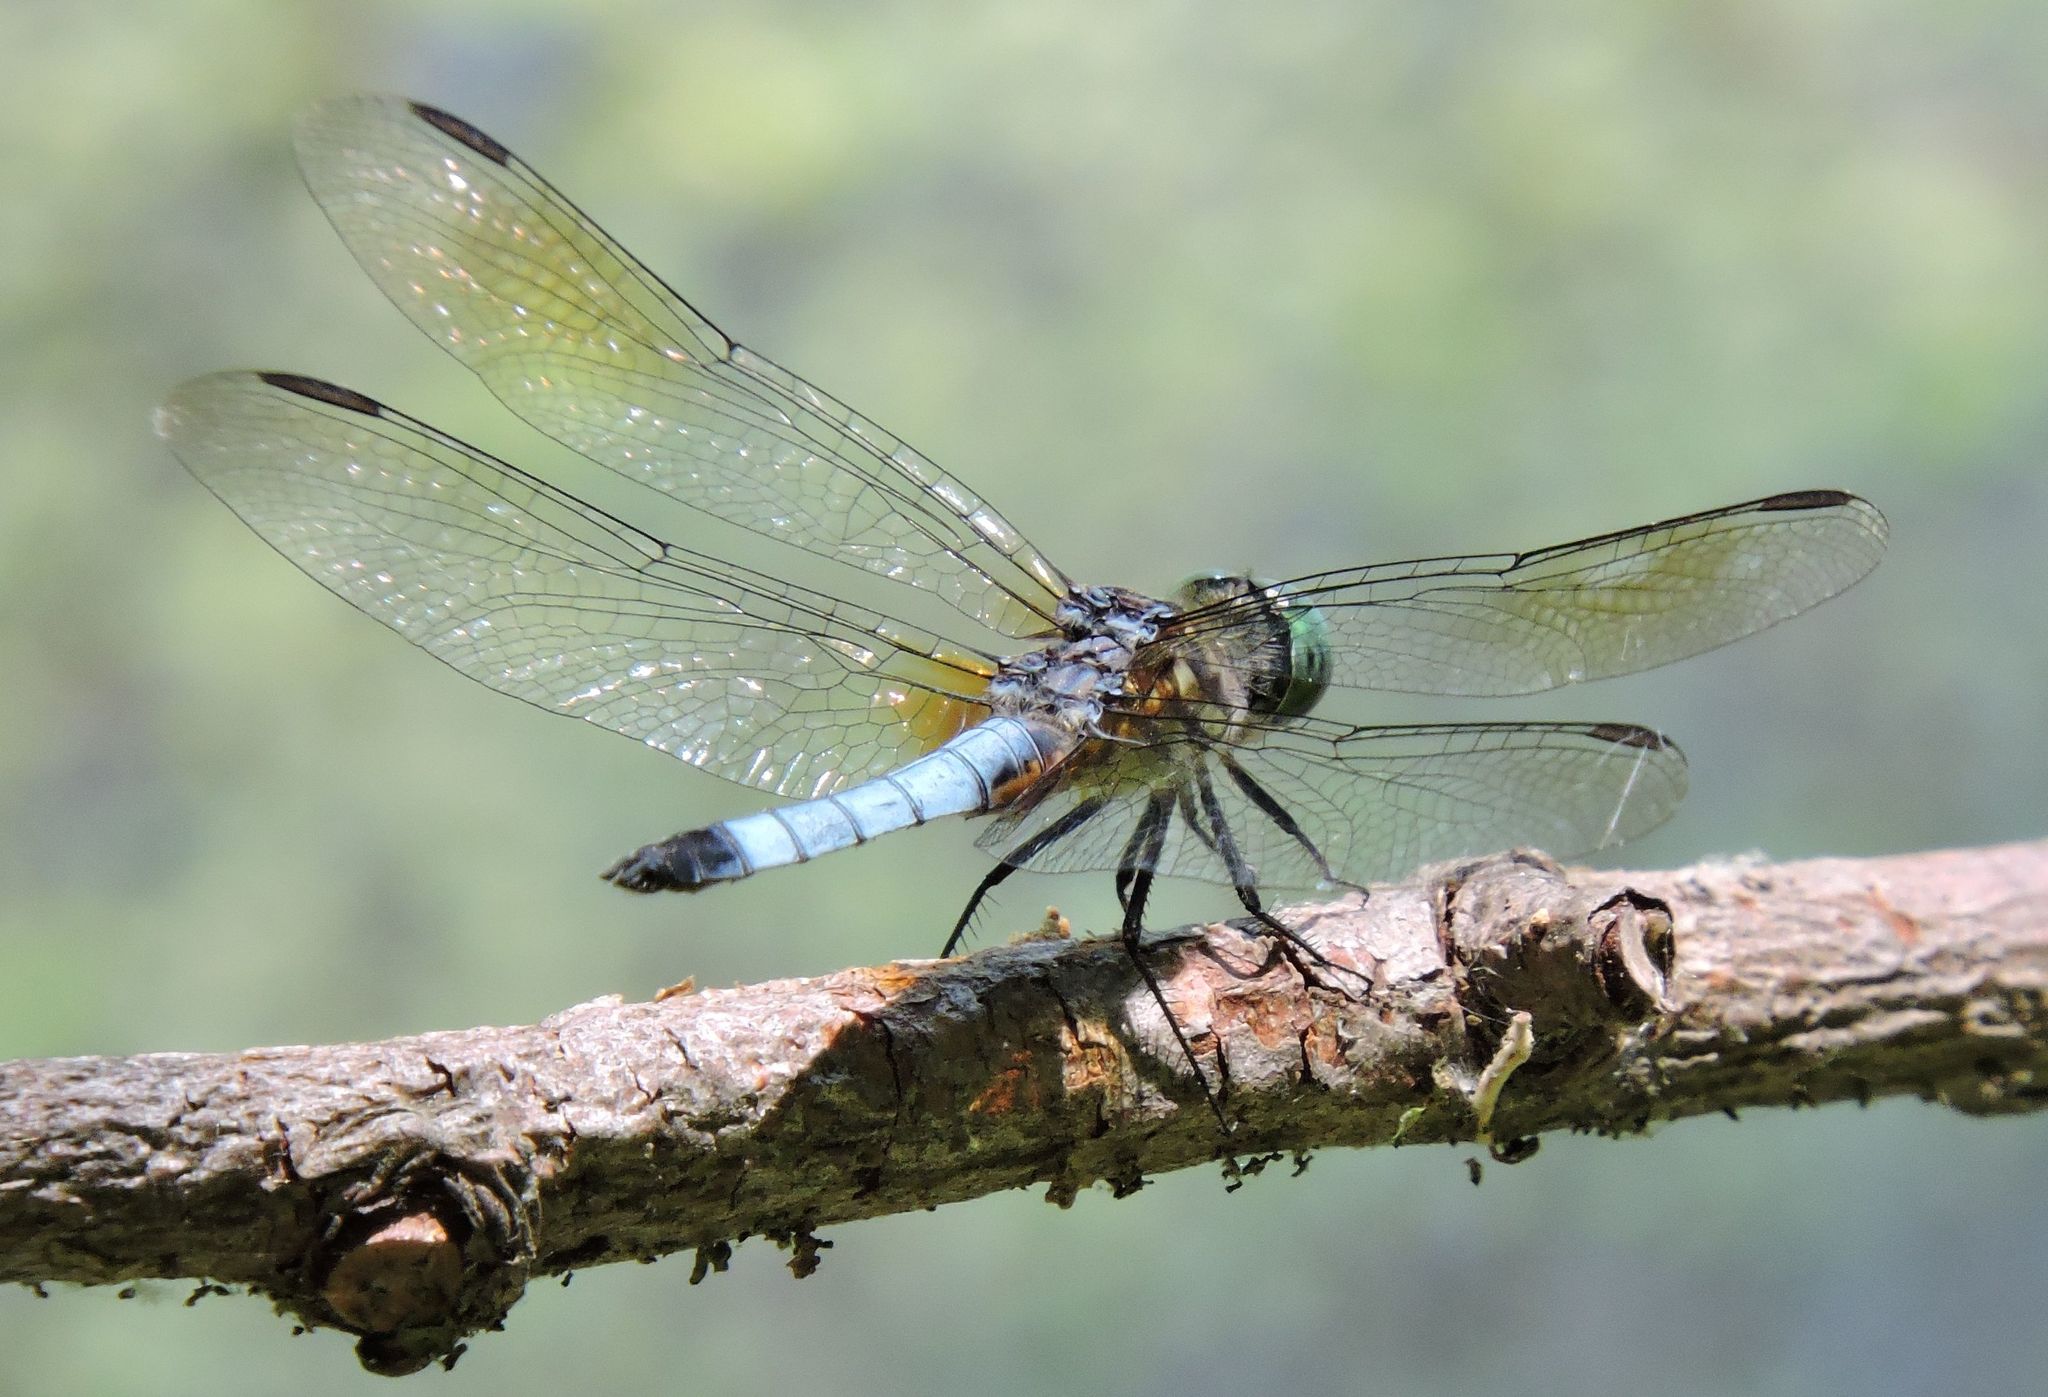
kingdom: Animalia
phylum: Arthropoda
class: Insecta
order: Odonata
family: Libellulidae
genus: Pachydiplax
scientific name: Pachydiplax longipennis
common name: Blue dasher
